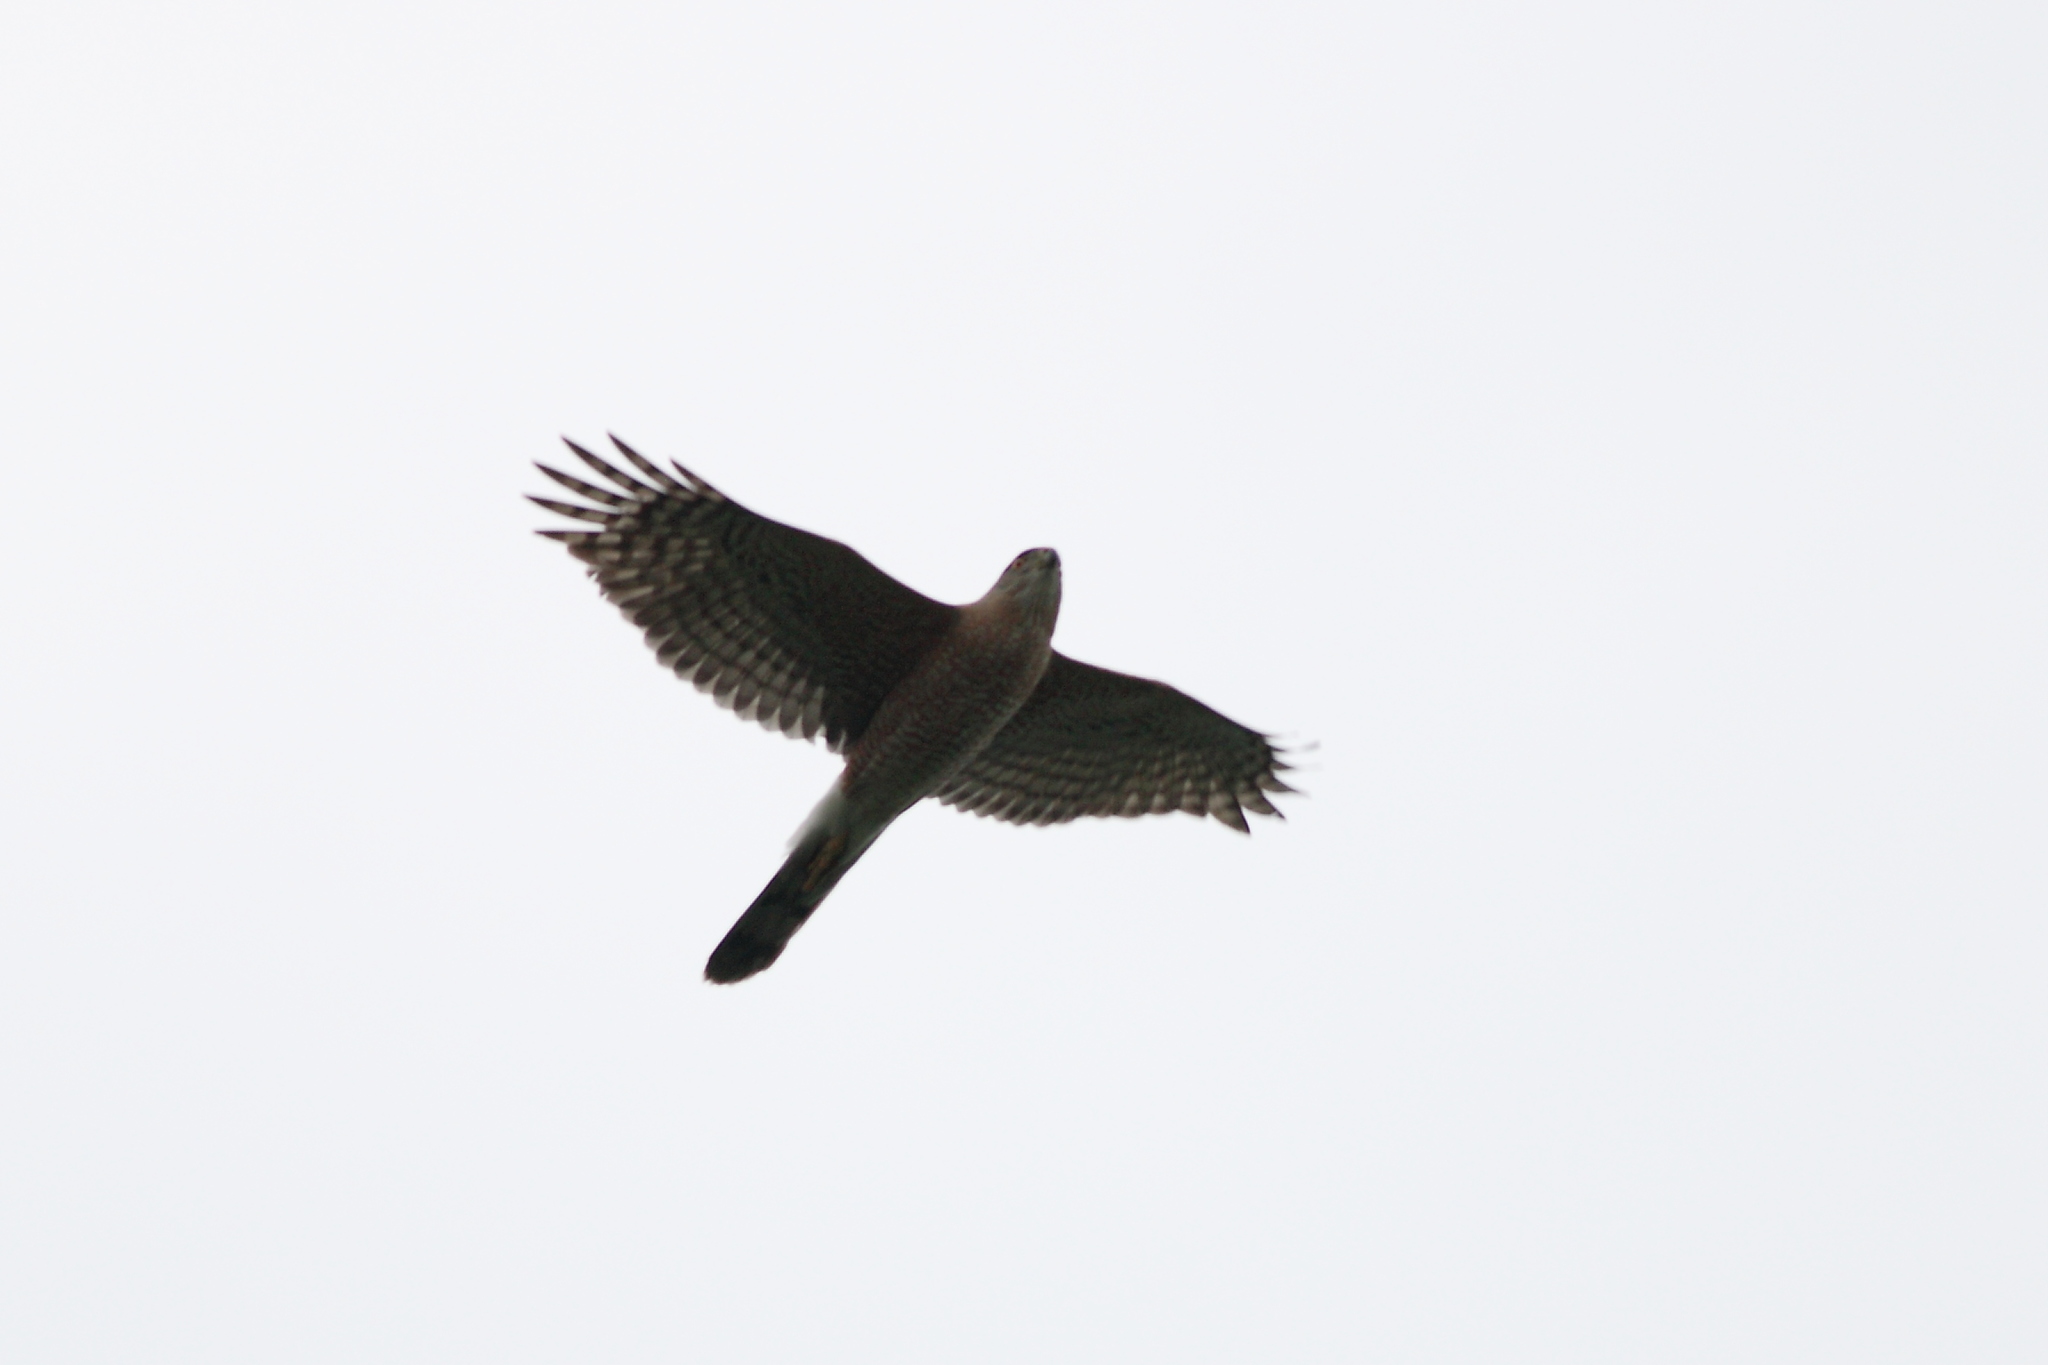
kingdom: Animalia
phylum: Chordata
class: Aves
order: Accipitriformes
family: Accipitridae
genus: Accipiter
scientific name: Accipiter cooperii
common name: Cooper's hawk
